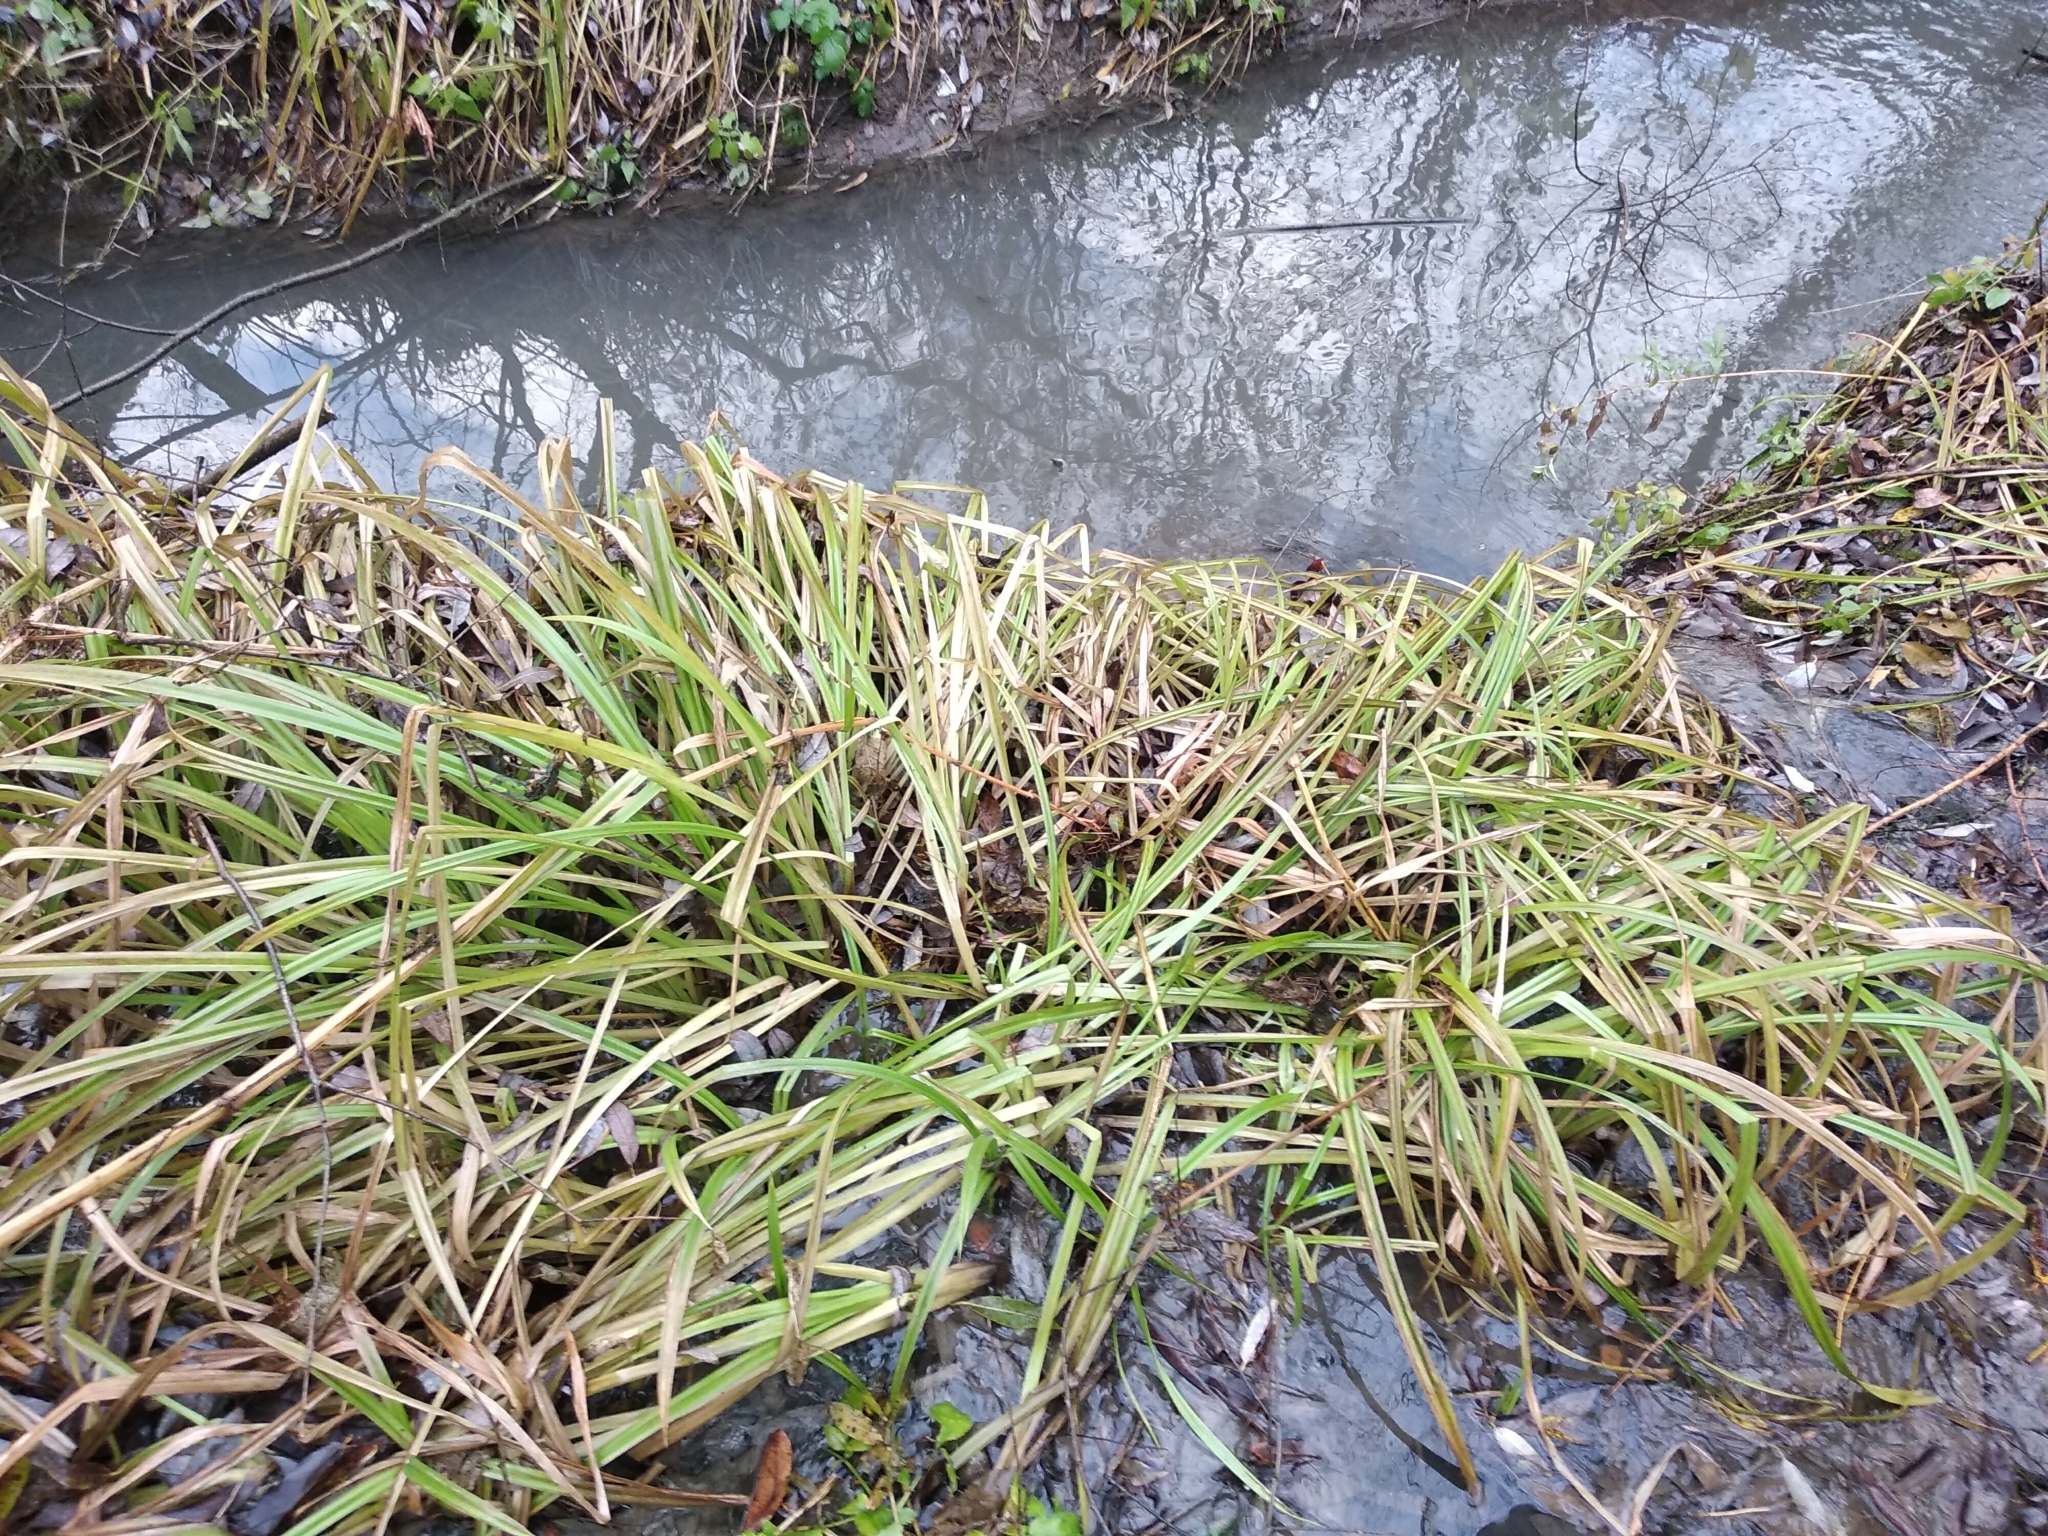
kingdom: Plantae
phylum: Tracheophyta
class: Liliopsida
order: Poales
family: Cyperaceae
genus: Scirpus
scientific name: Scirpus sylvaticus
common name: Wood club-rush
